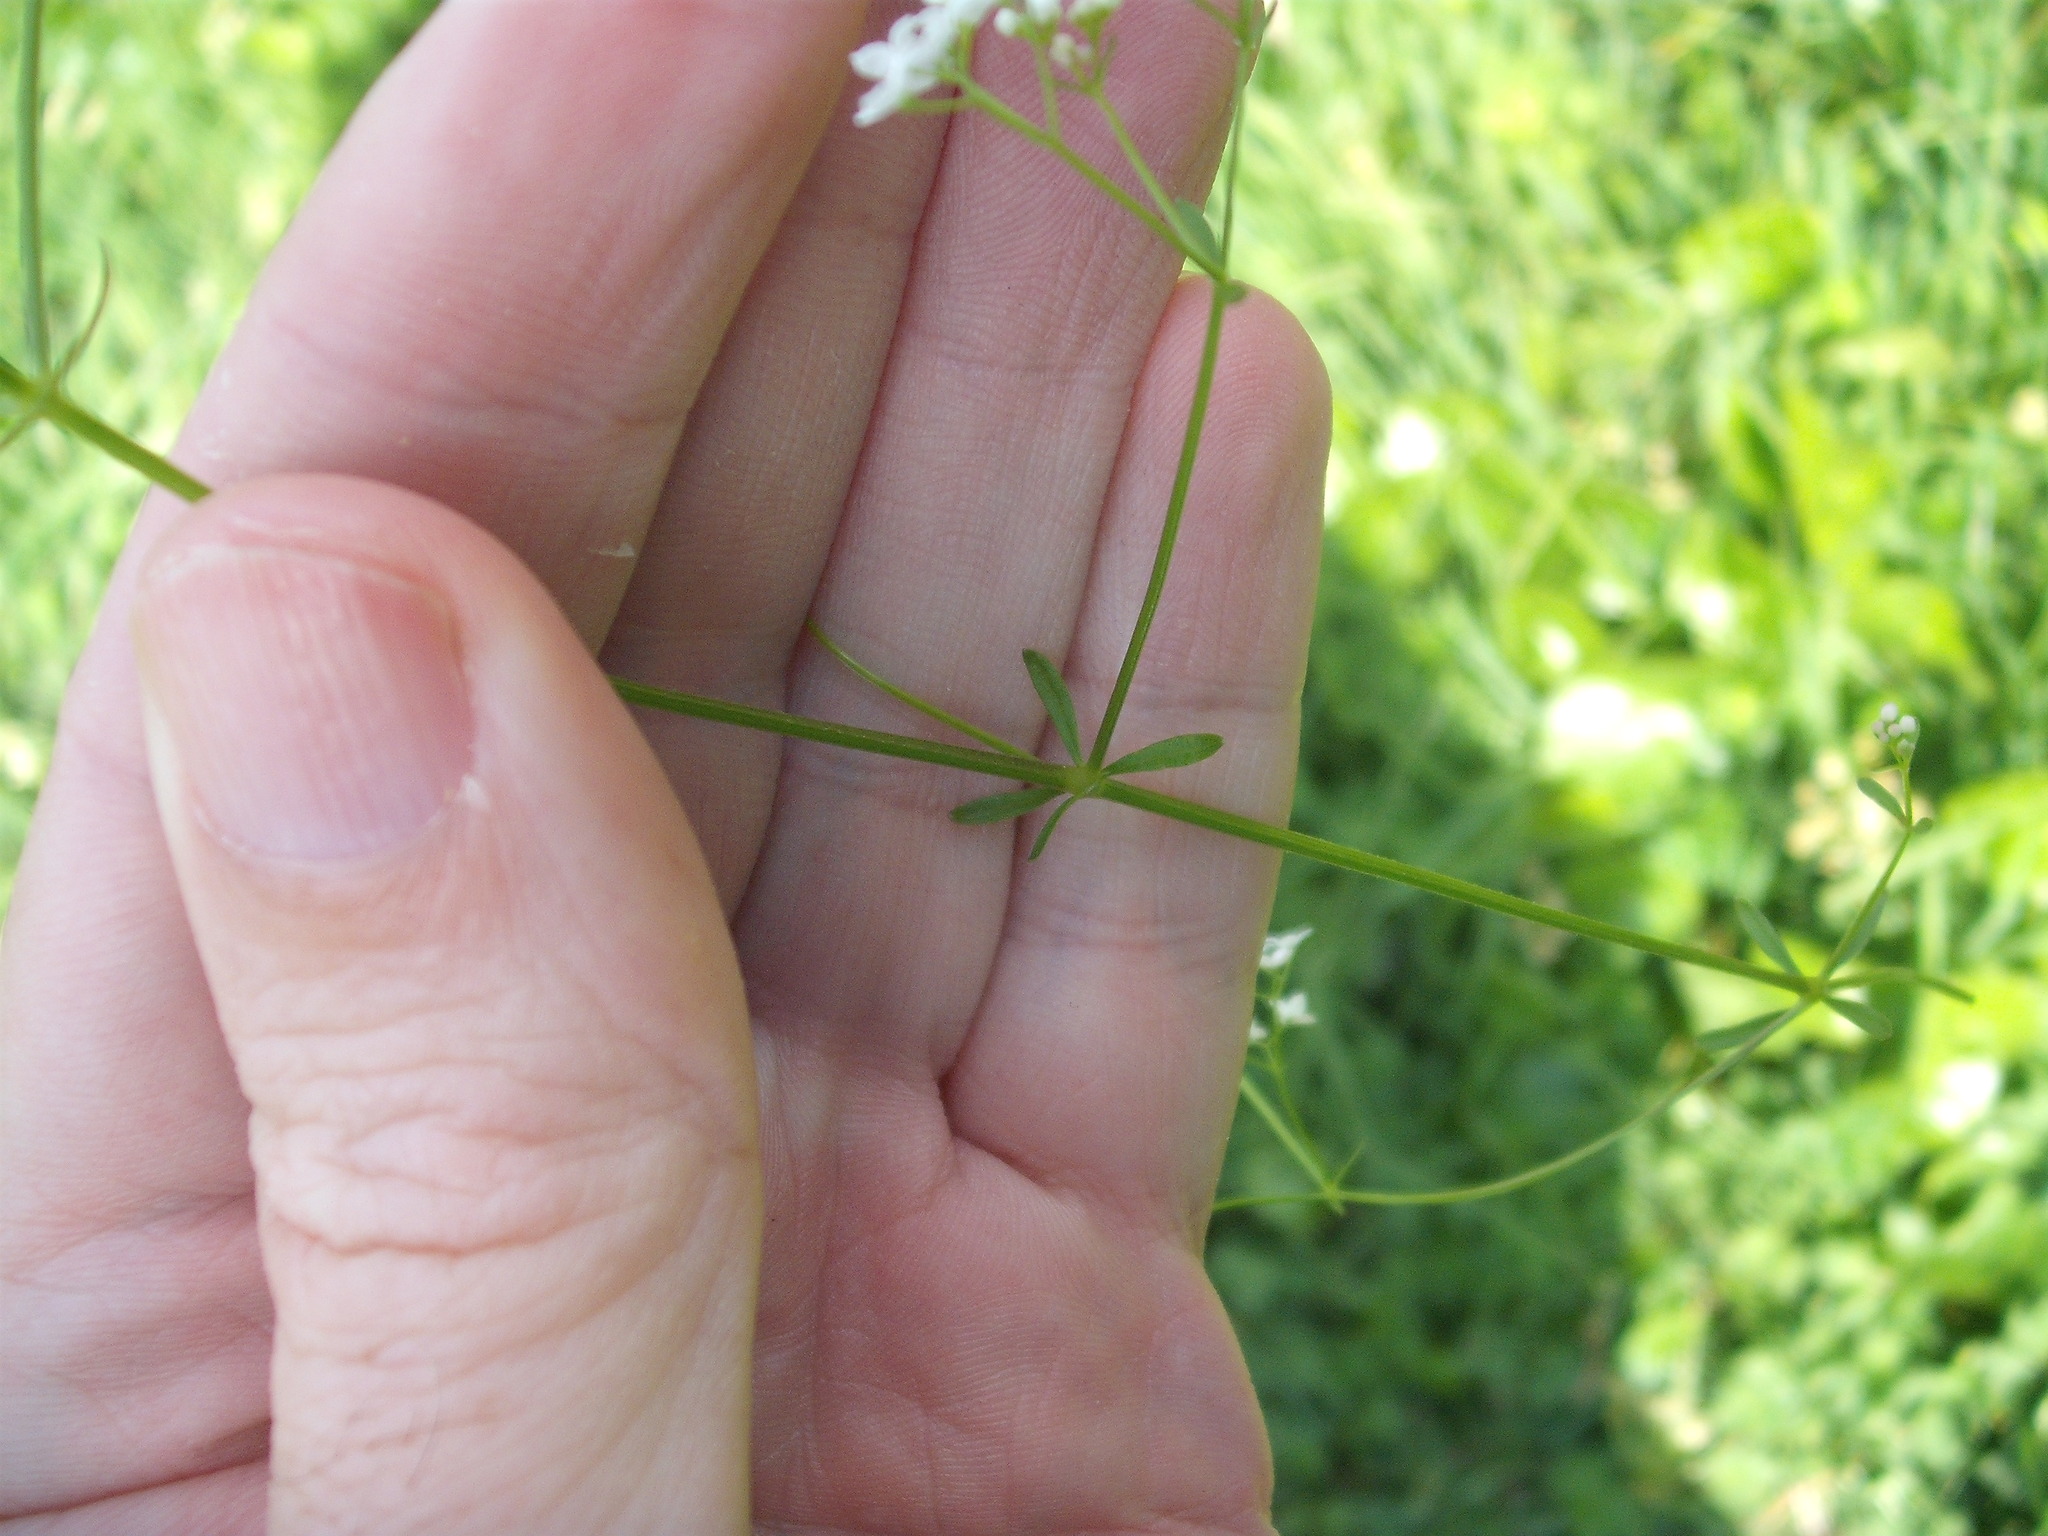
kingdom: Plantae
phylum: Tracheophyta
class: Magnoliopsida
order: Gentianales
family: Rubiaceae
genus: Galium
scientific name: Galium palustre
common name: Common marsh-bedstraw
